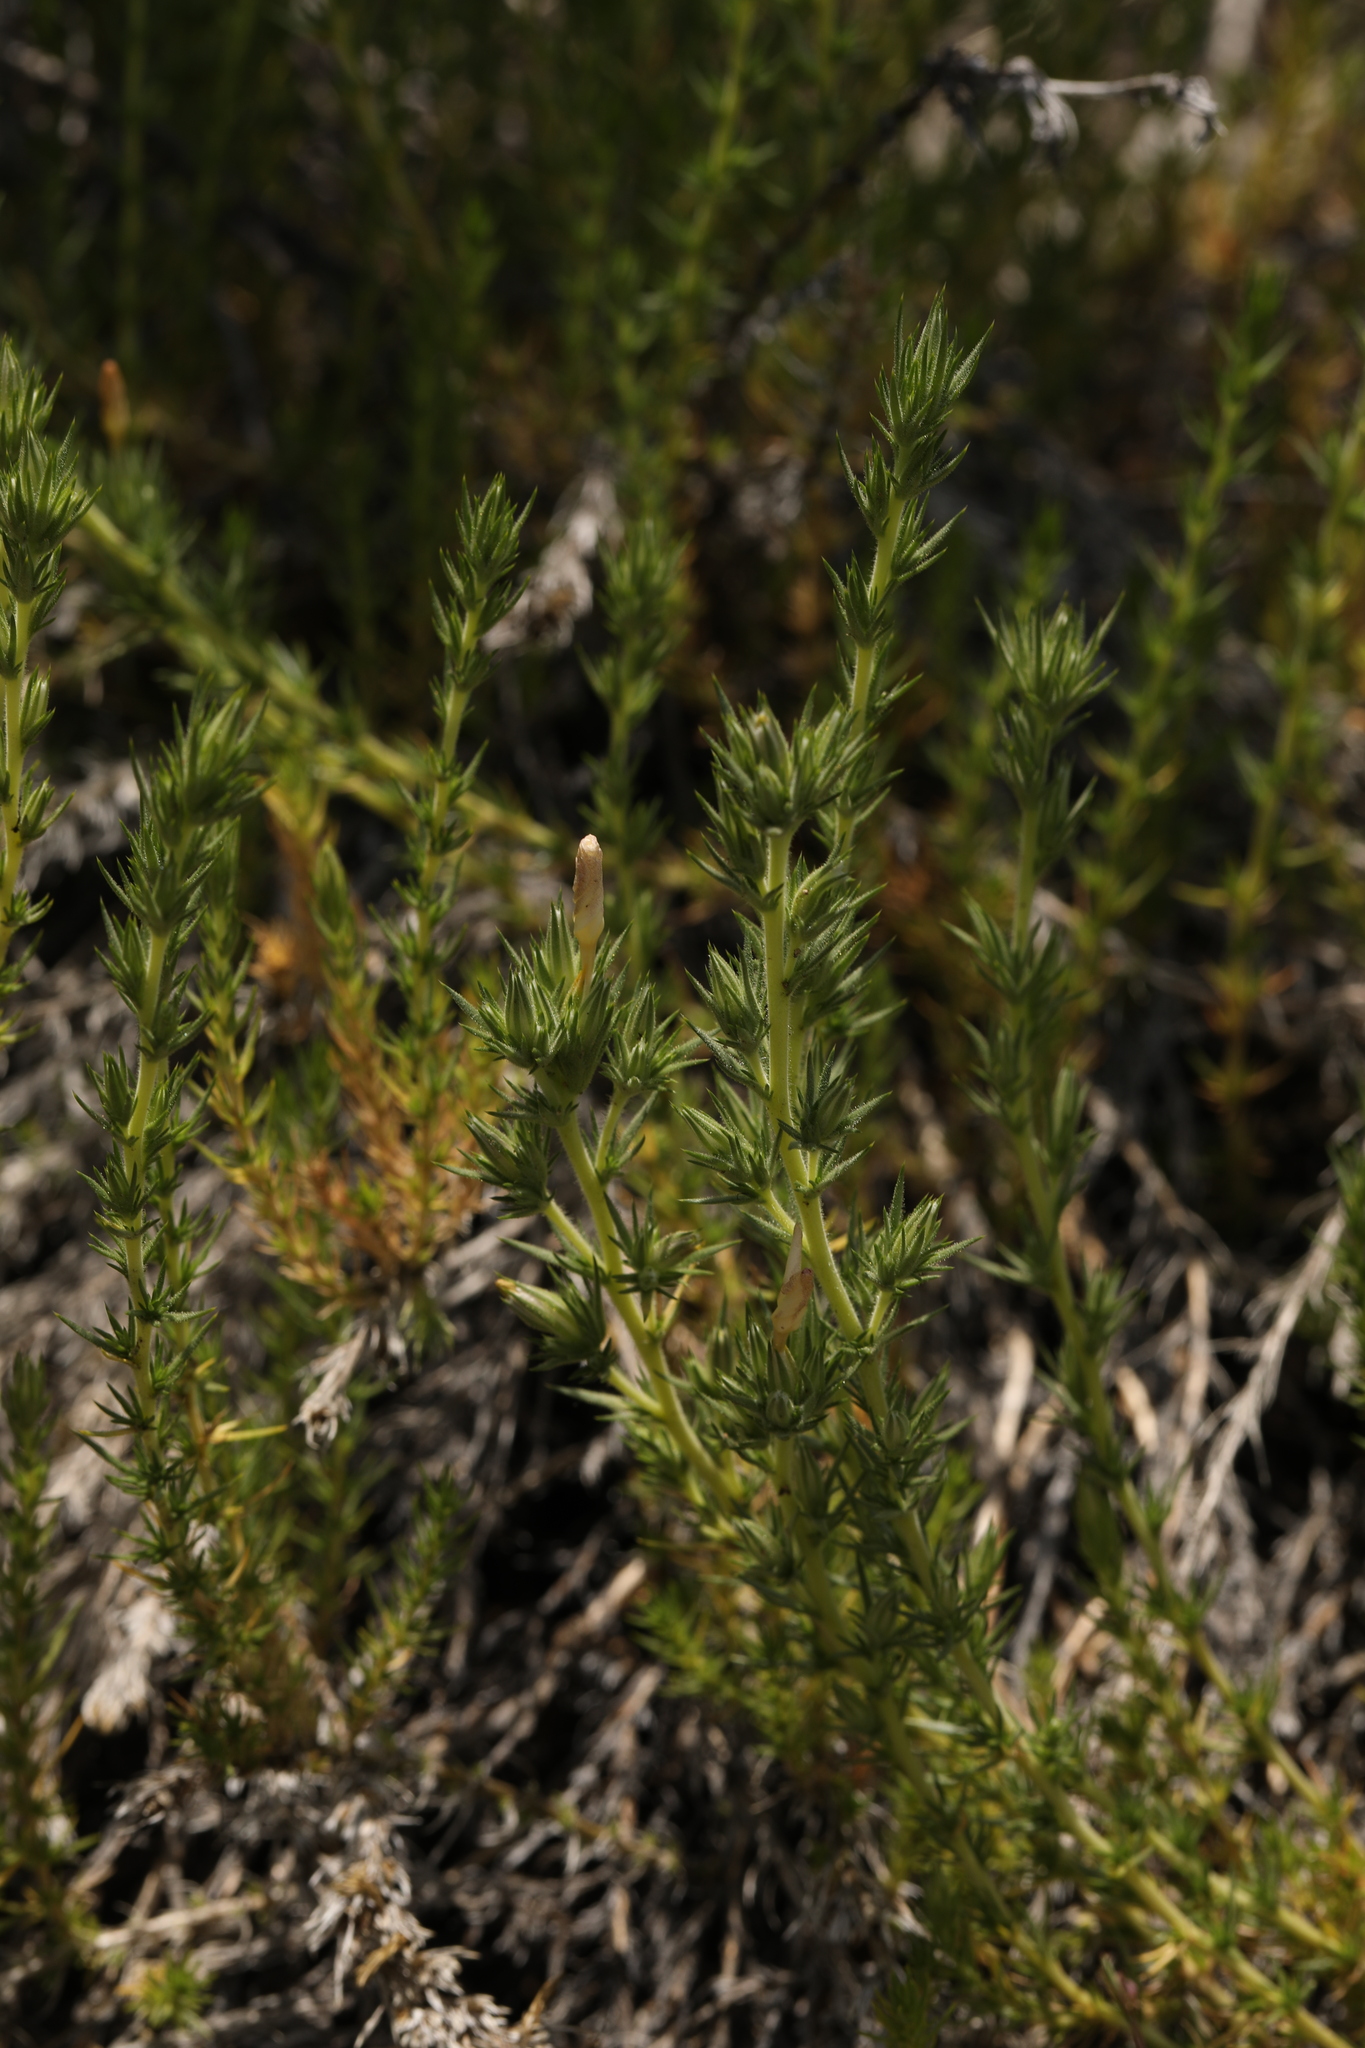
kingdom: Plantae
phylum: Tracheophyta
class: Magnoliopsida
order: Ericales
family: Polemoniaceae
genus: Linanthus
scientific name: Linanthus pungens
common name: Granite prickly phlox
